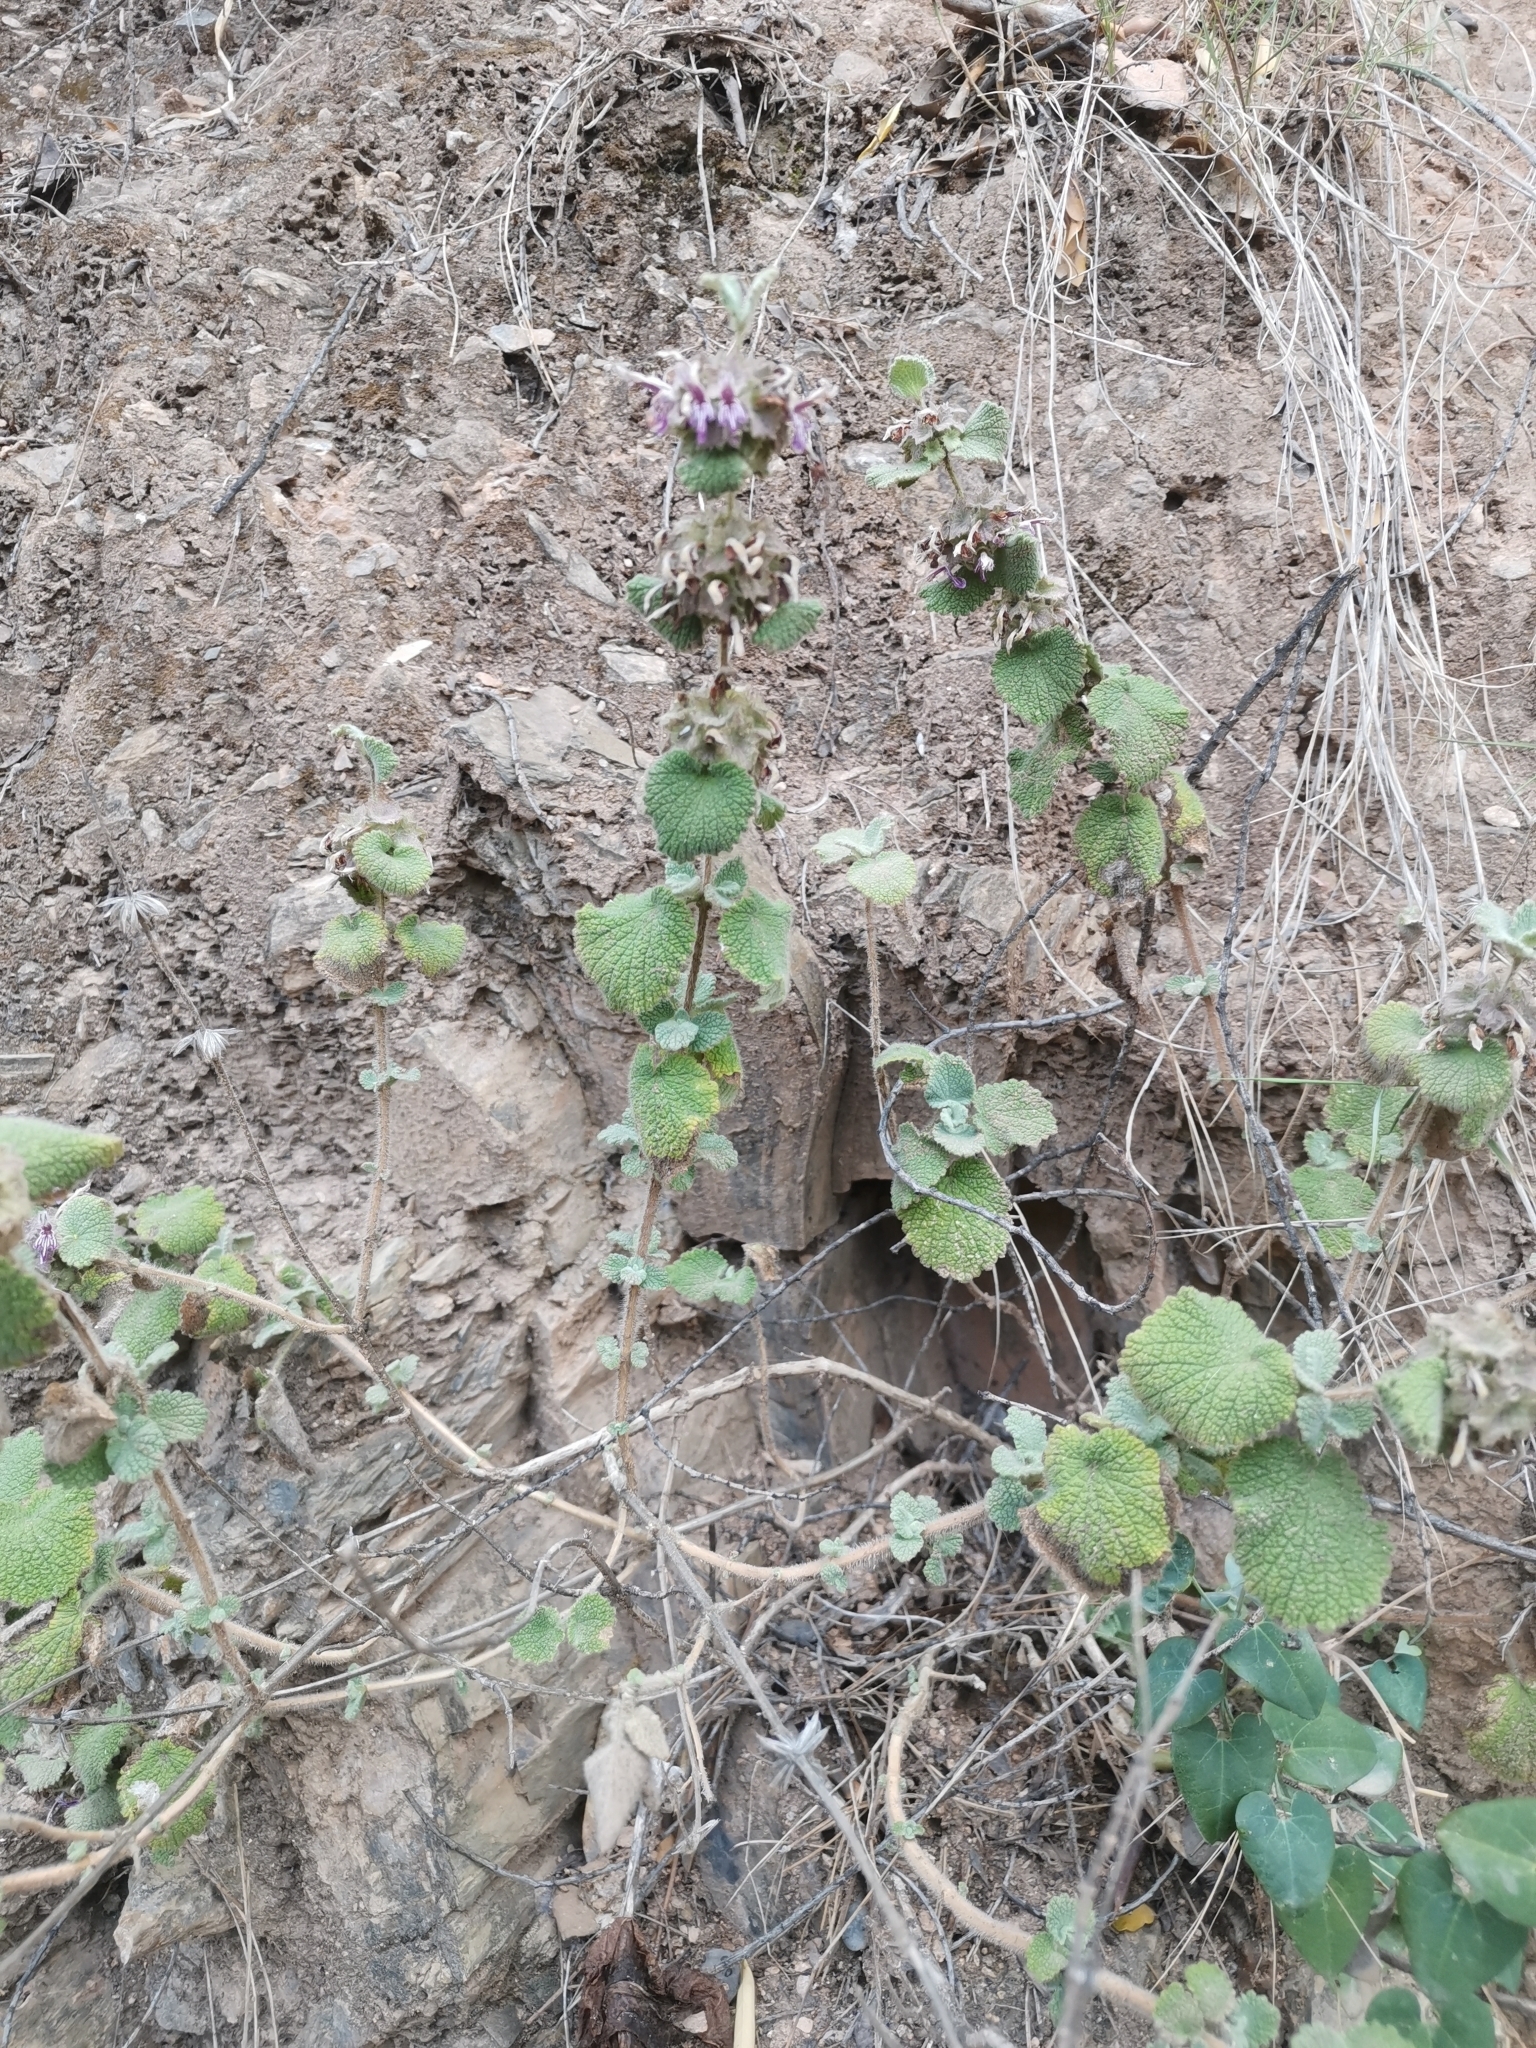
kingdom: Plantae
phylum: Tracheophyta
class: Magnoliopsida
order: Lamiales
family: Lamiaceae
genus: Pseudodictamnus
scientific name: Pseudodictamnus hirsutus
